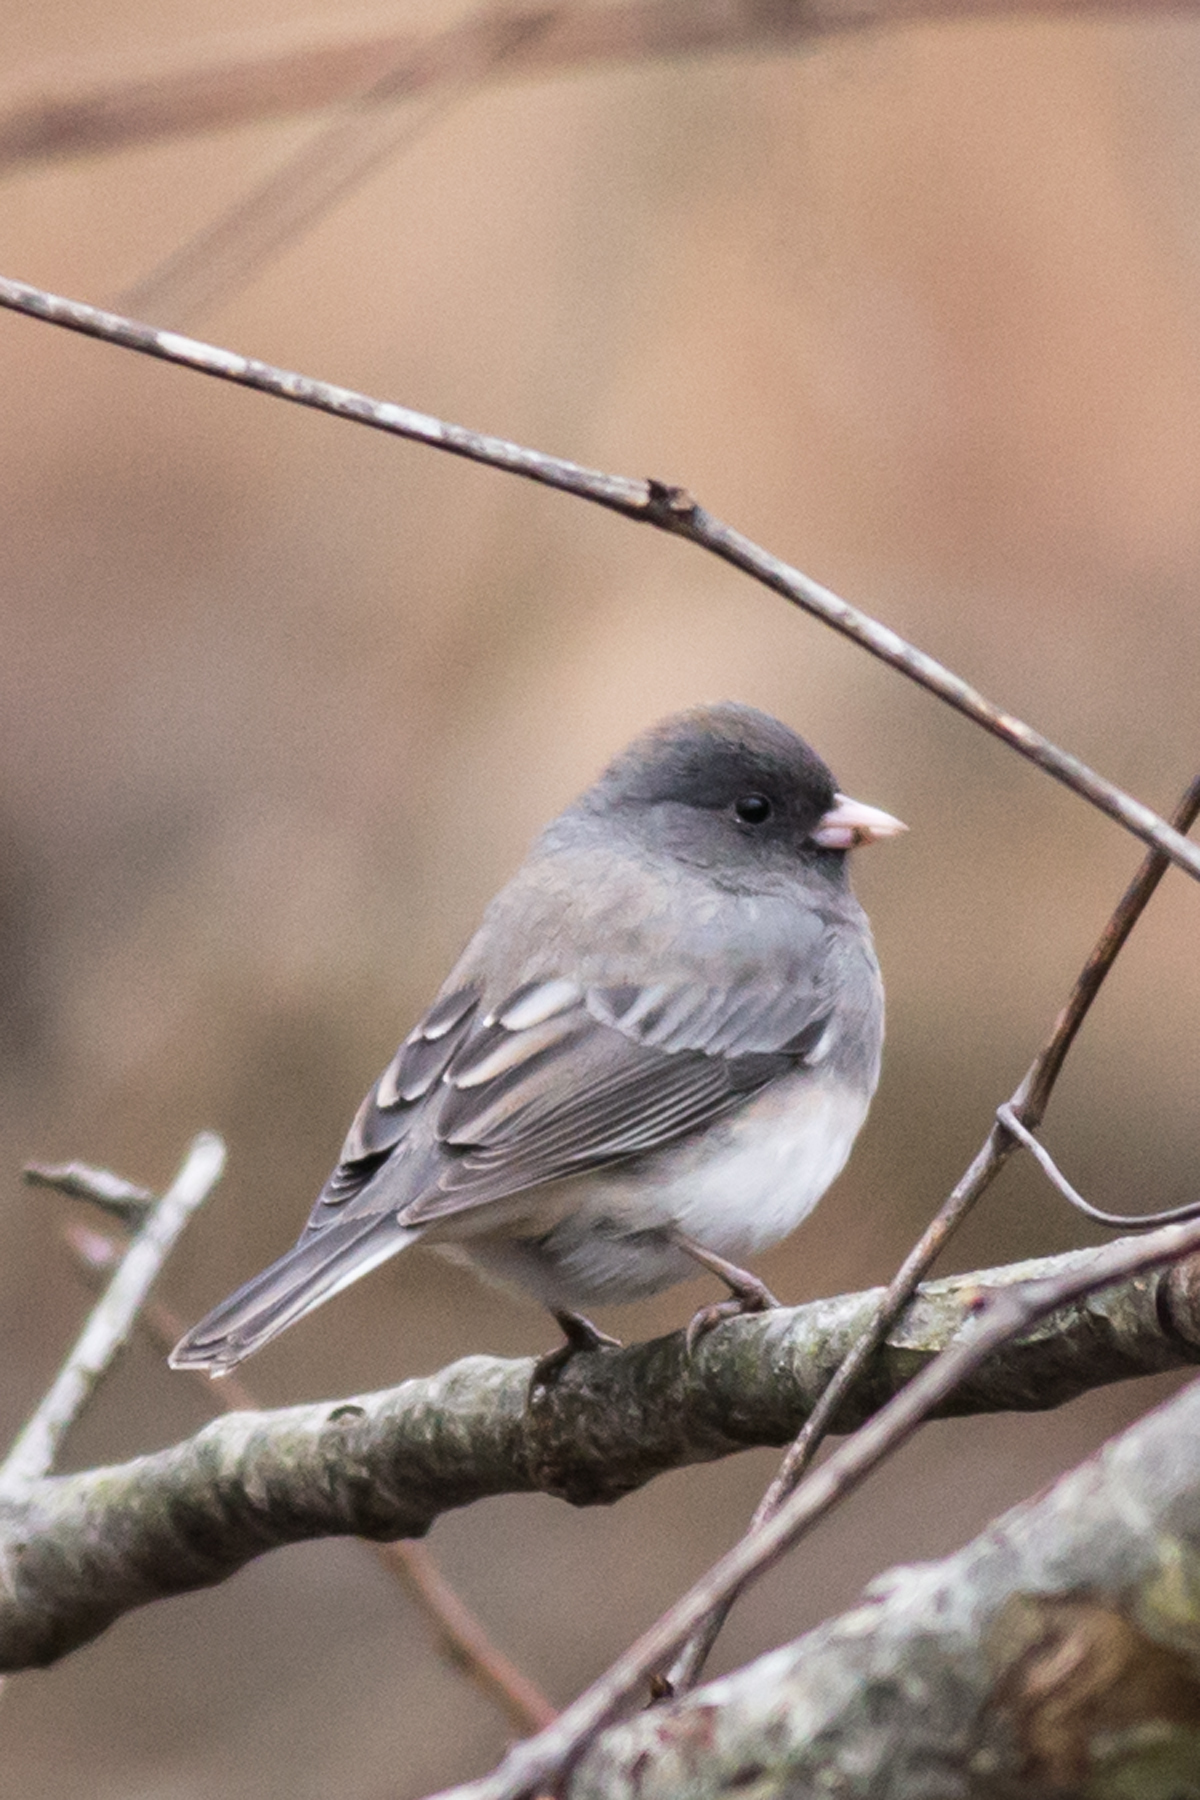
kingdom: Animalia
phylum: Chordata
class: Aves
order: Passeriformes
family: Passerellidae
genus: Junco
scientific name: Junco hyemalis
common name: Dark-eyed junco
